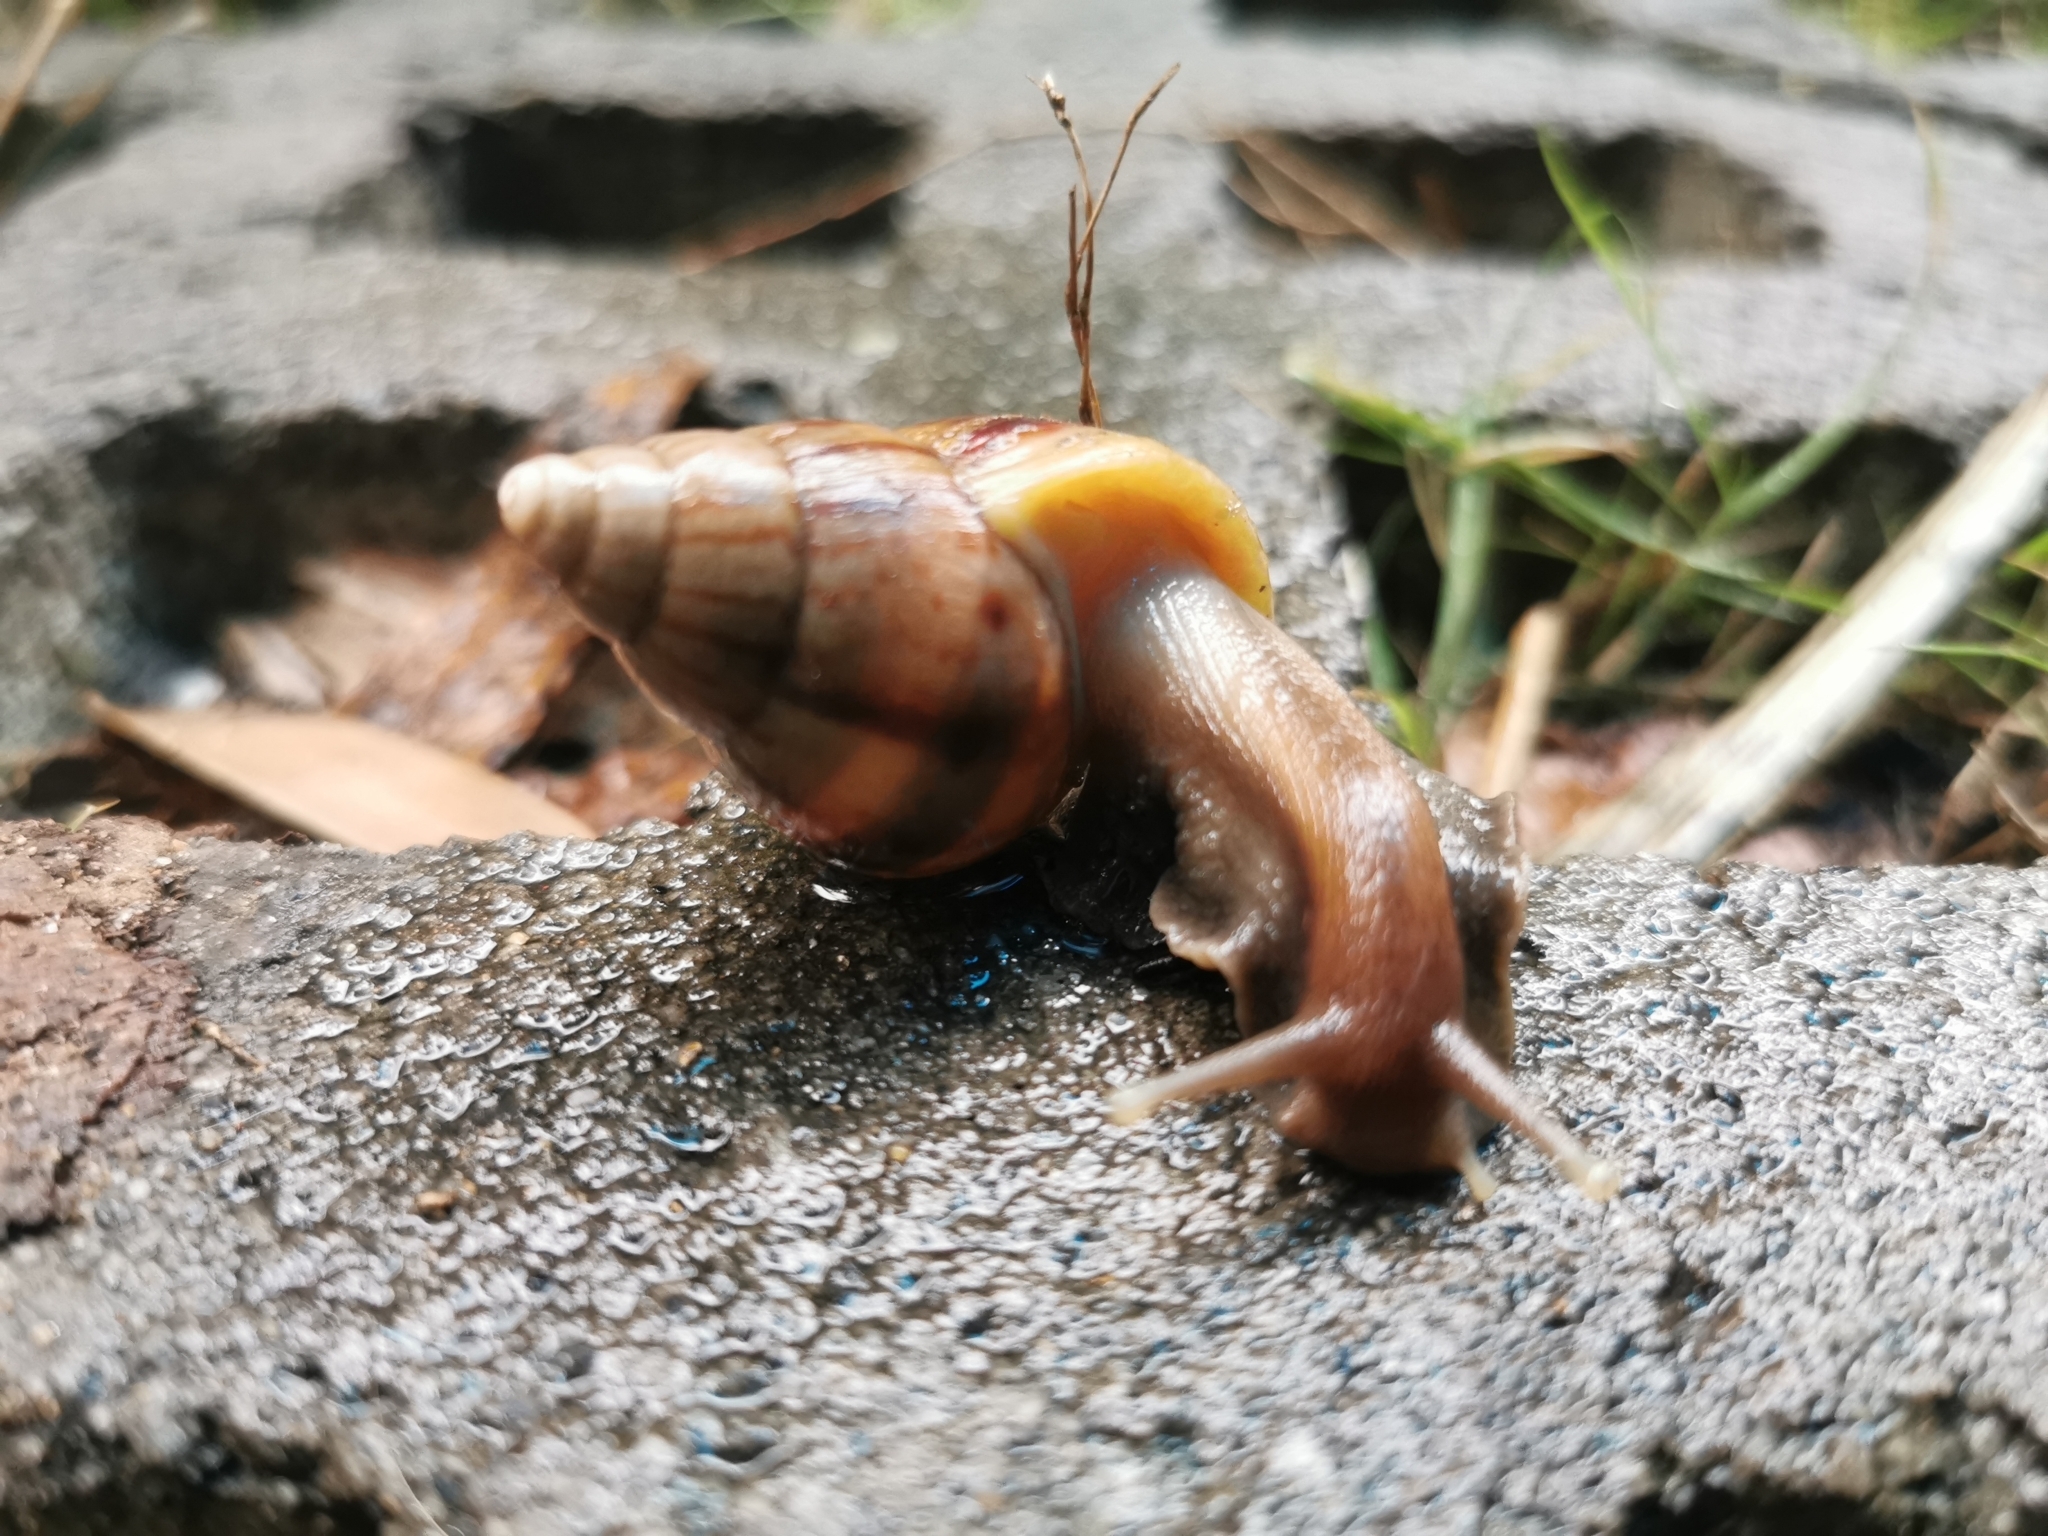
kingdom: Animalia
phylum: Mollusca
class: Gastropoda
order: Stylommatophora
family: Achatinidae
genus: Lissachatina
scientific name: Lissachatina fulica
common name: Giant african snail
